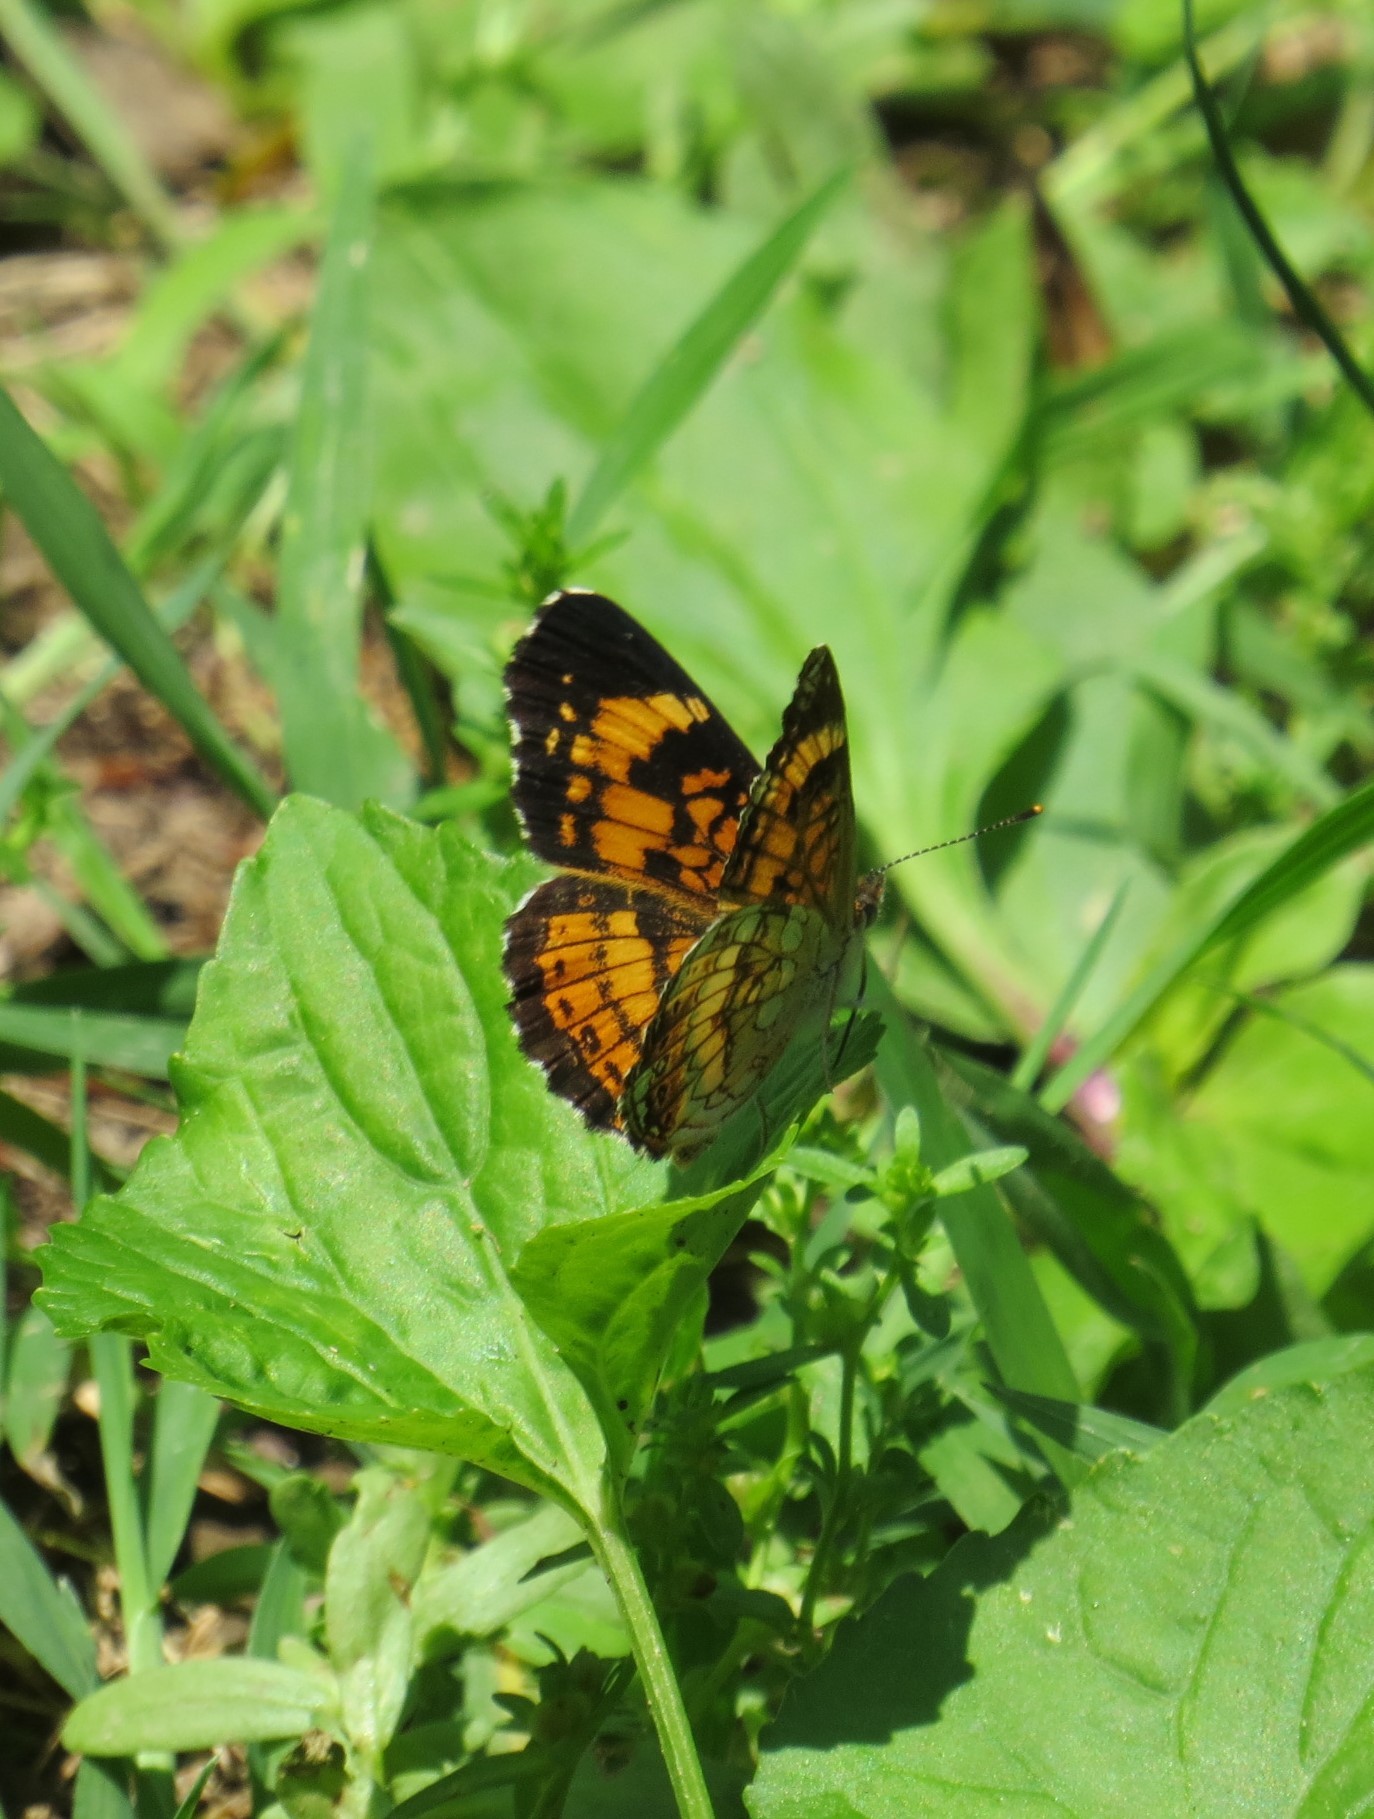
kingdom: Animalia
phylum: Arthropoda
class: Insecta
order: Lepidoptera
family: Nymphalidae
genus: Chlosyne
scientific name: Chlosyne nycteis
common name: Silvery checkerspot
